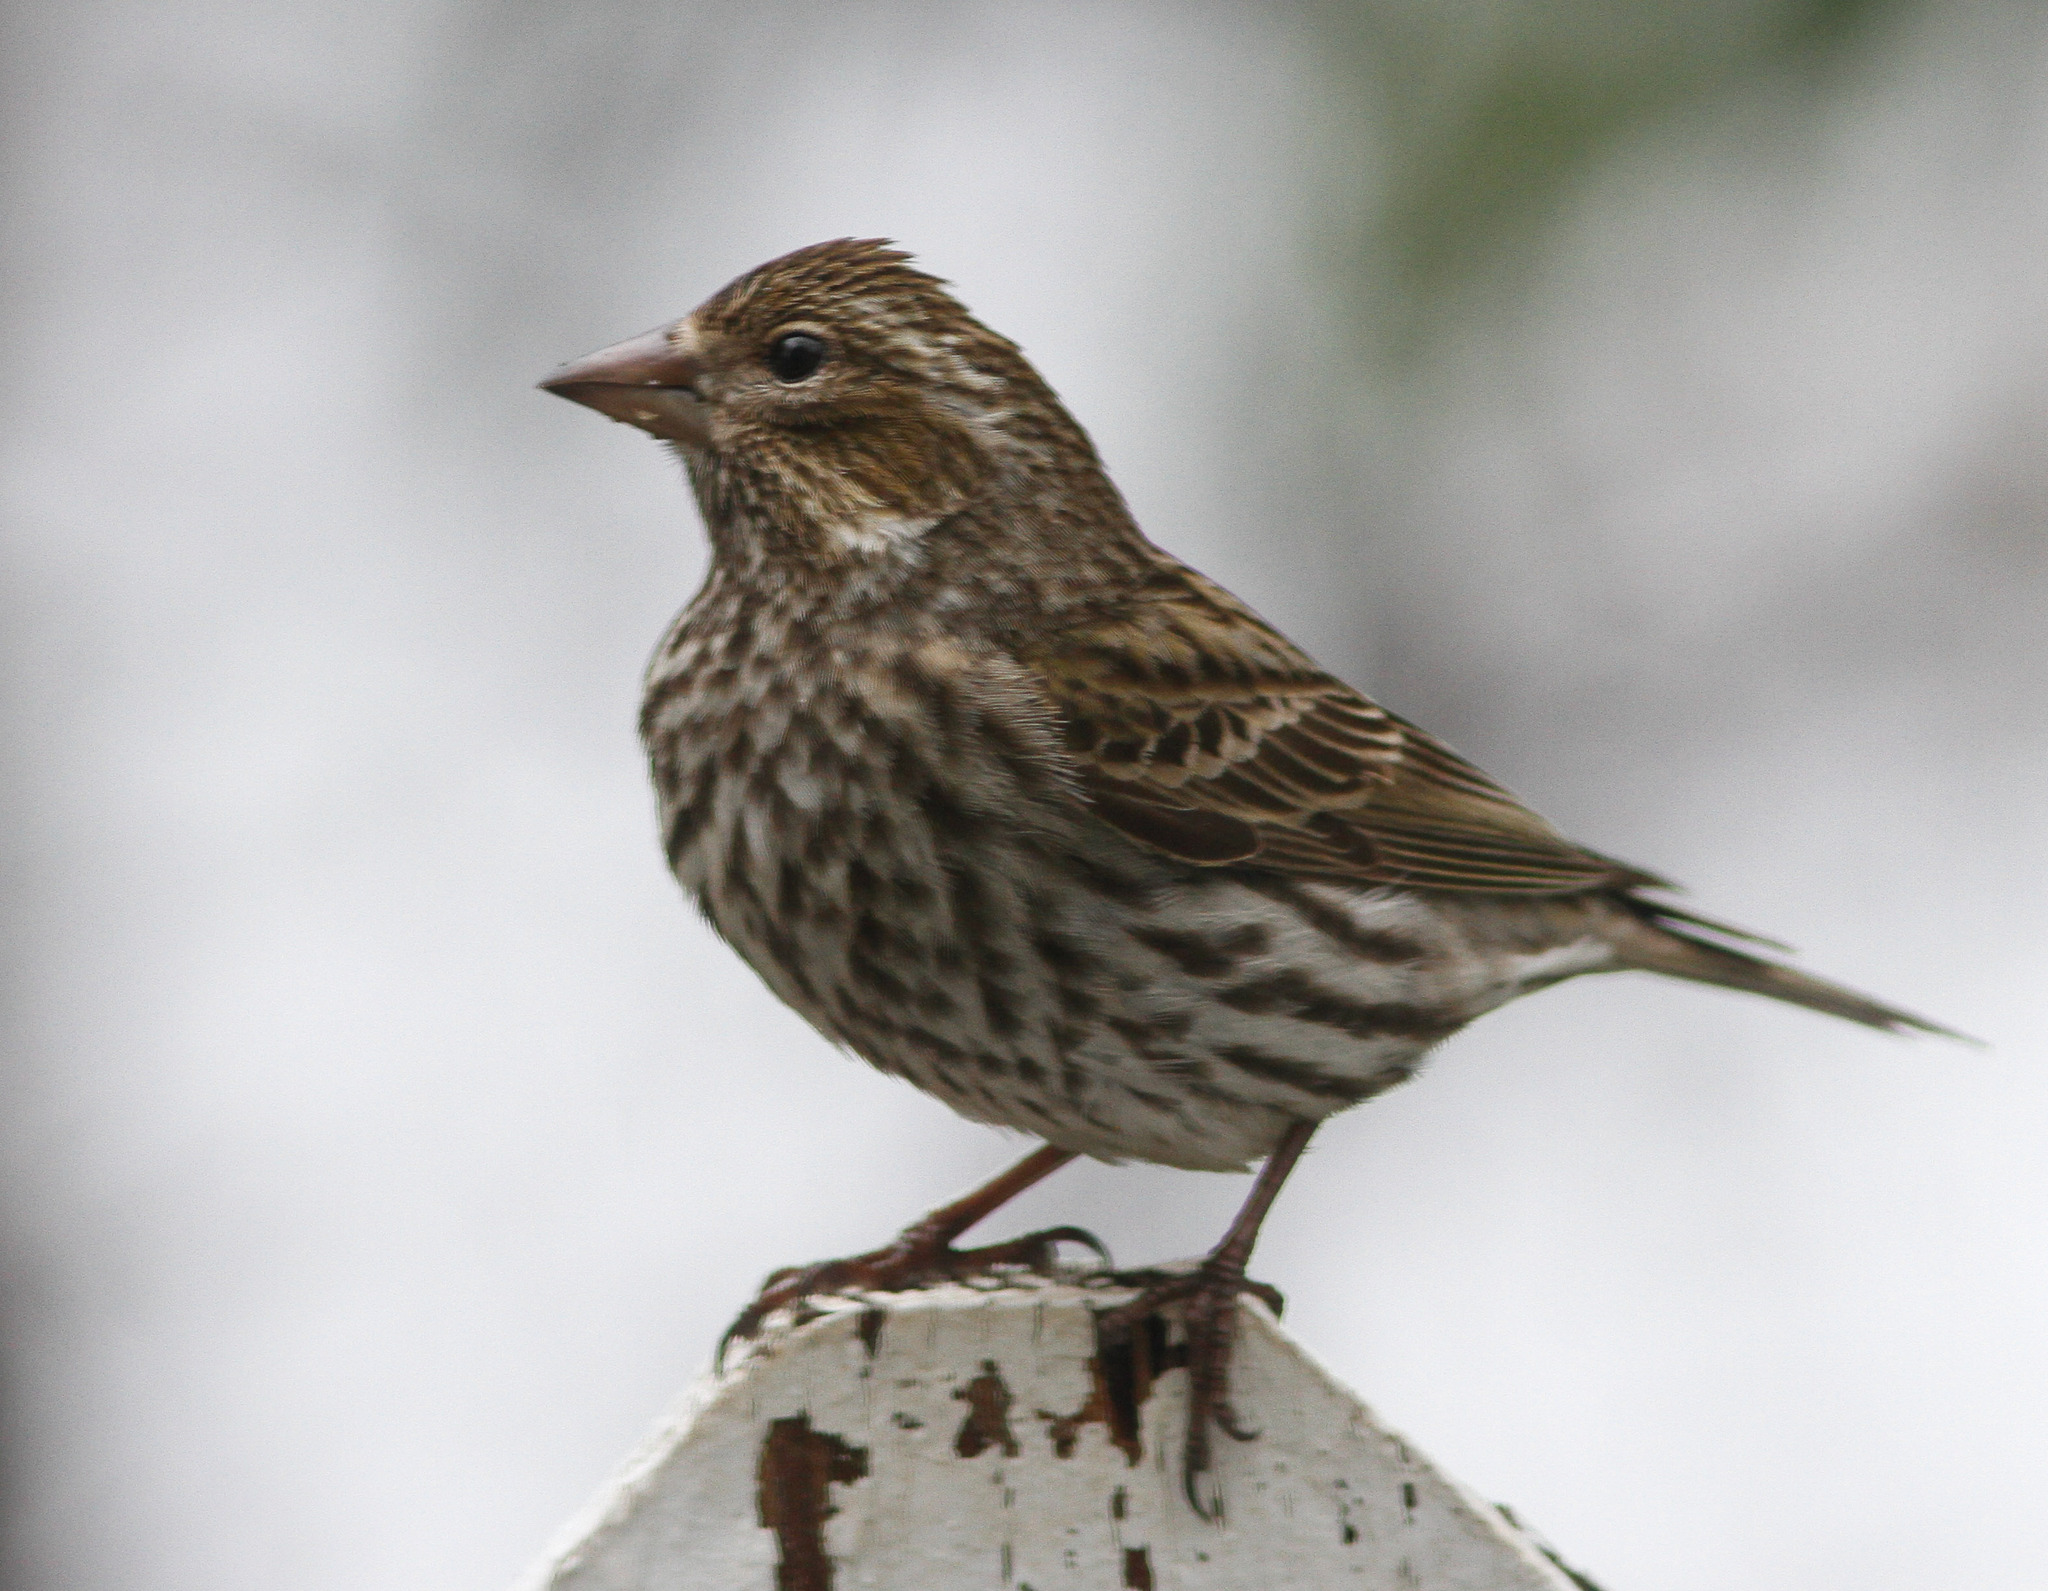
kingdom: Animalia
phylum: Chordata
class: Aves
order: Passeriformes
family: Fringillidae
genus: Haemorhous
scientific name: Haemorhous cassinii
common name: Cassin's finch
